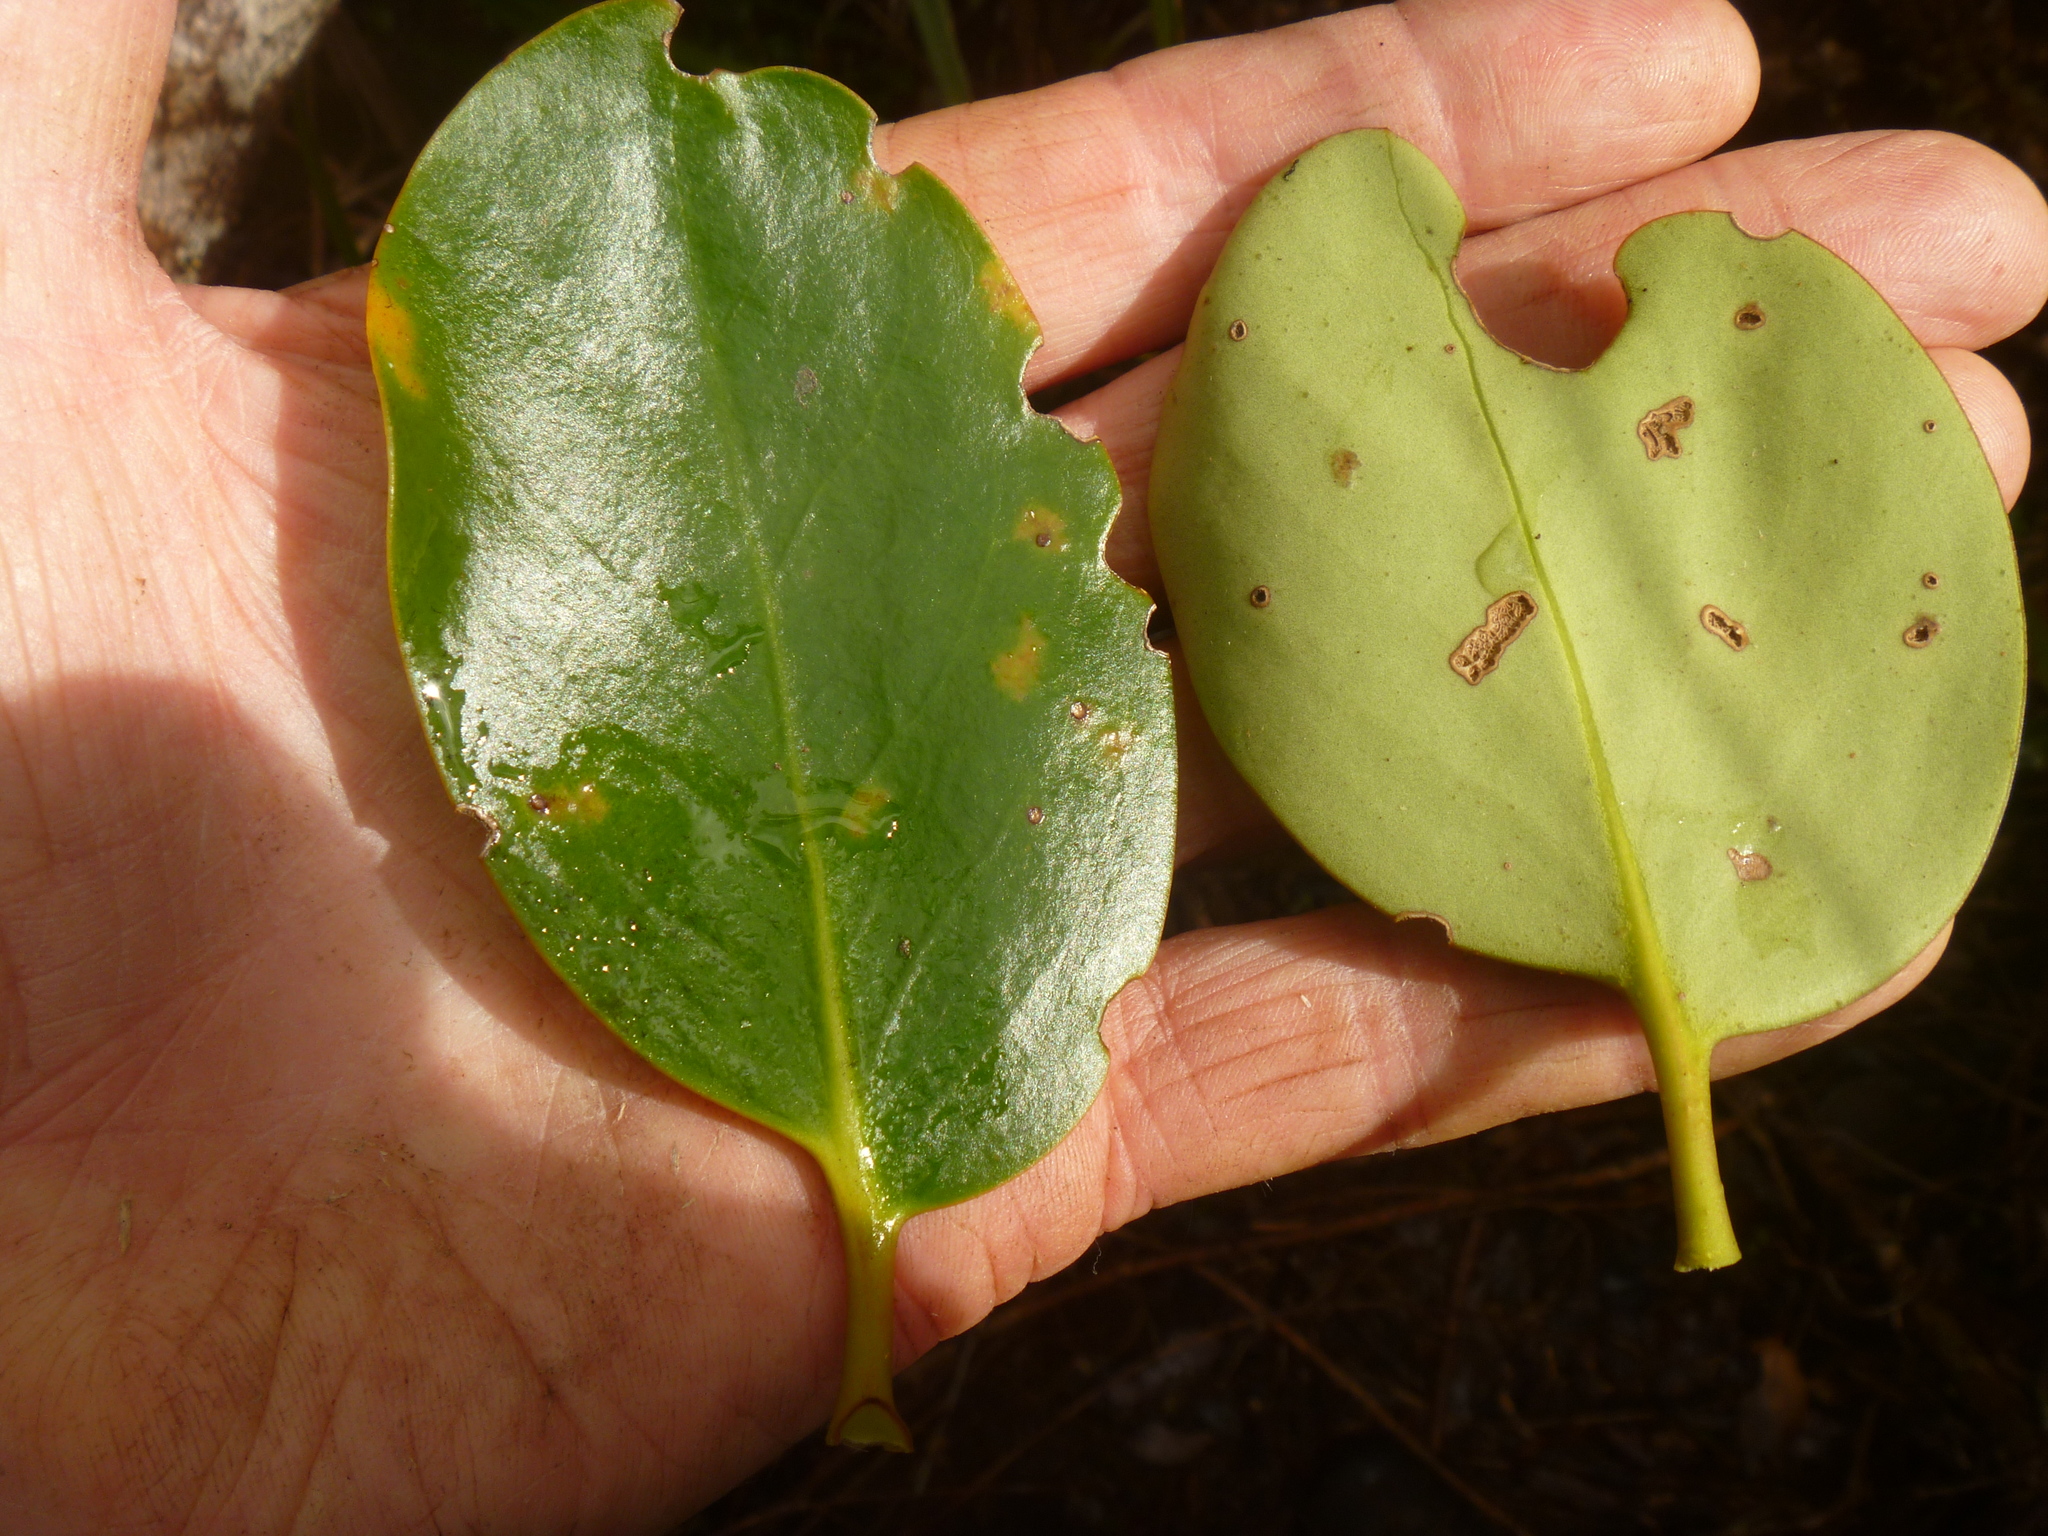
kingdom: Plantae
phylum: Tracheophyta
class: Magnoliopsida
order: Apiales
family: Griseliniaceae
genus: Griselinia
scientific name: Griselinia lucida
